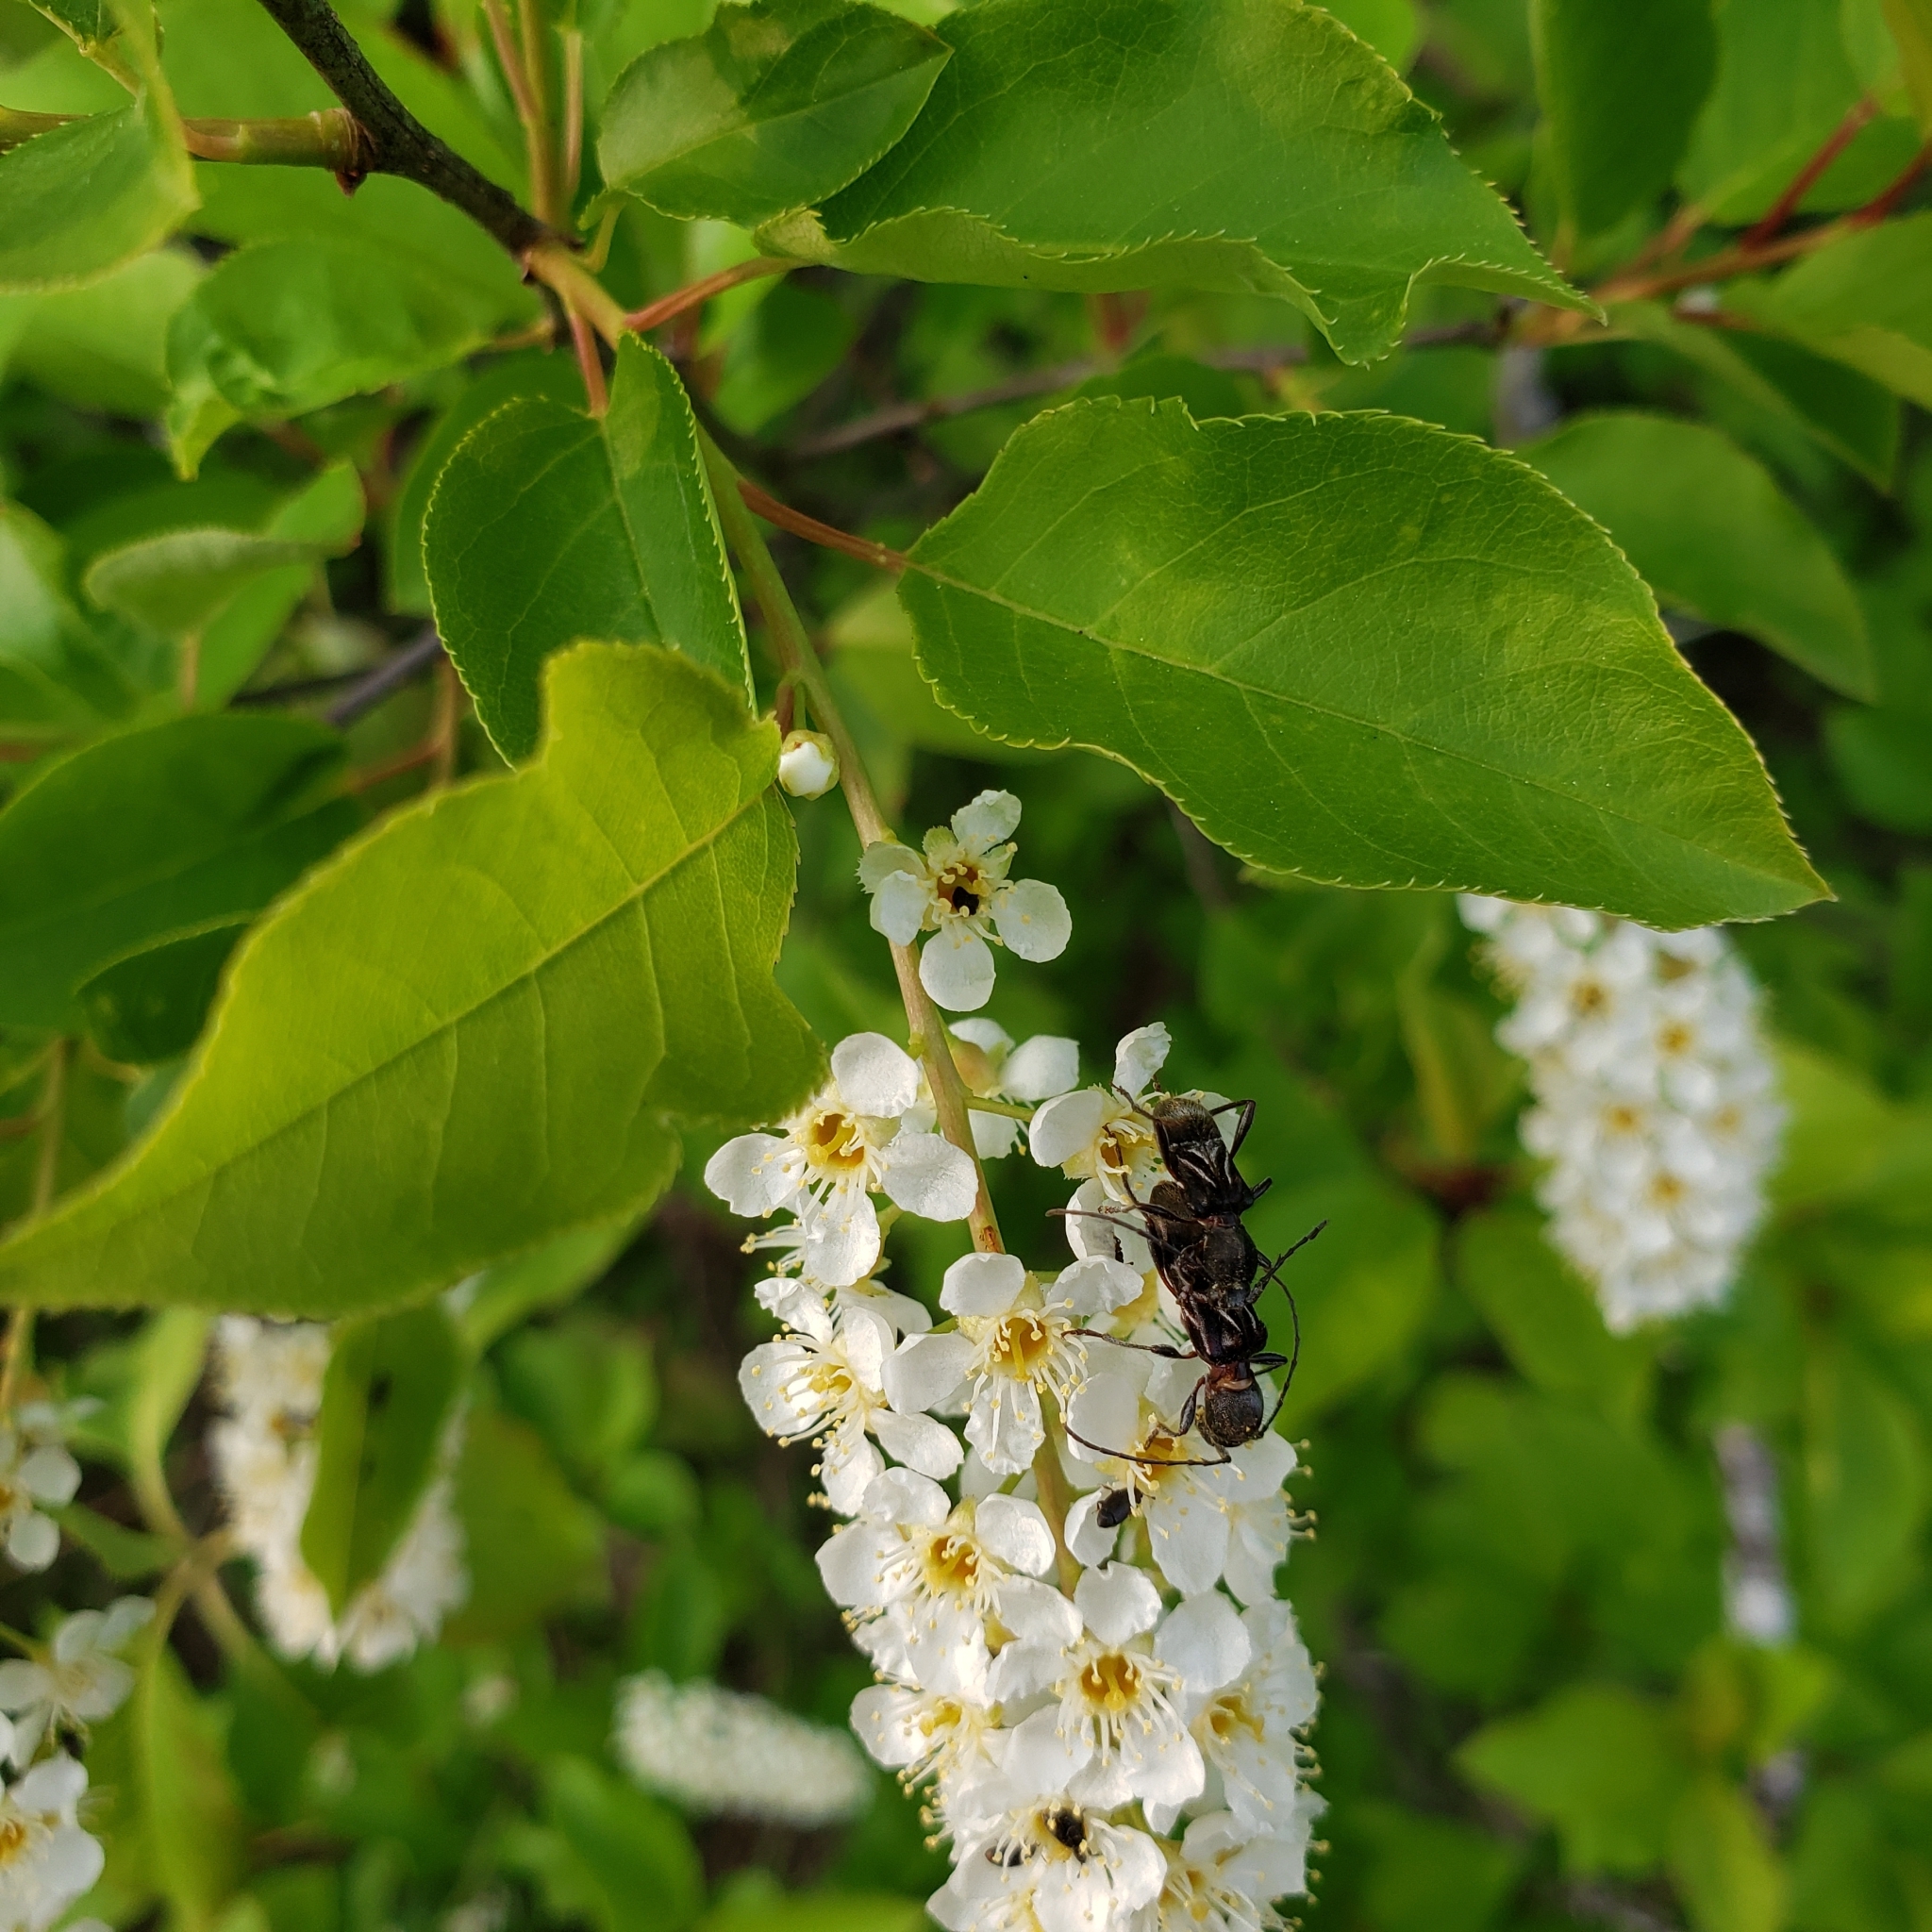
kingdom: Animalia
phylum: Arthropoda
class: Insecta
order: Coleoptera
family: Cerambycidae
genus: Cyrtophorus
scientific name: Cyrtophorus verrucosus
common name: Ant-like longhorn beetle
